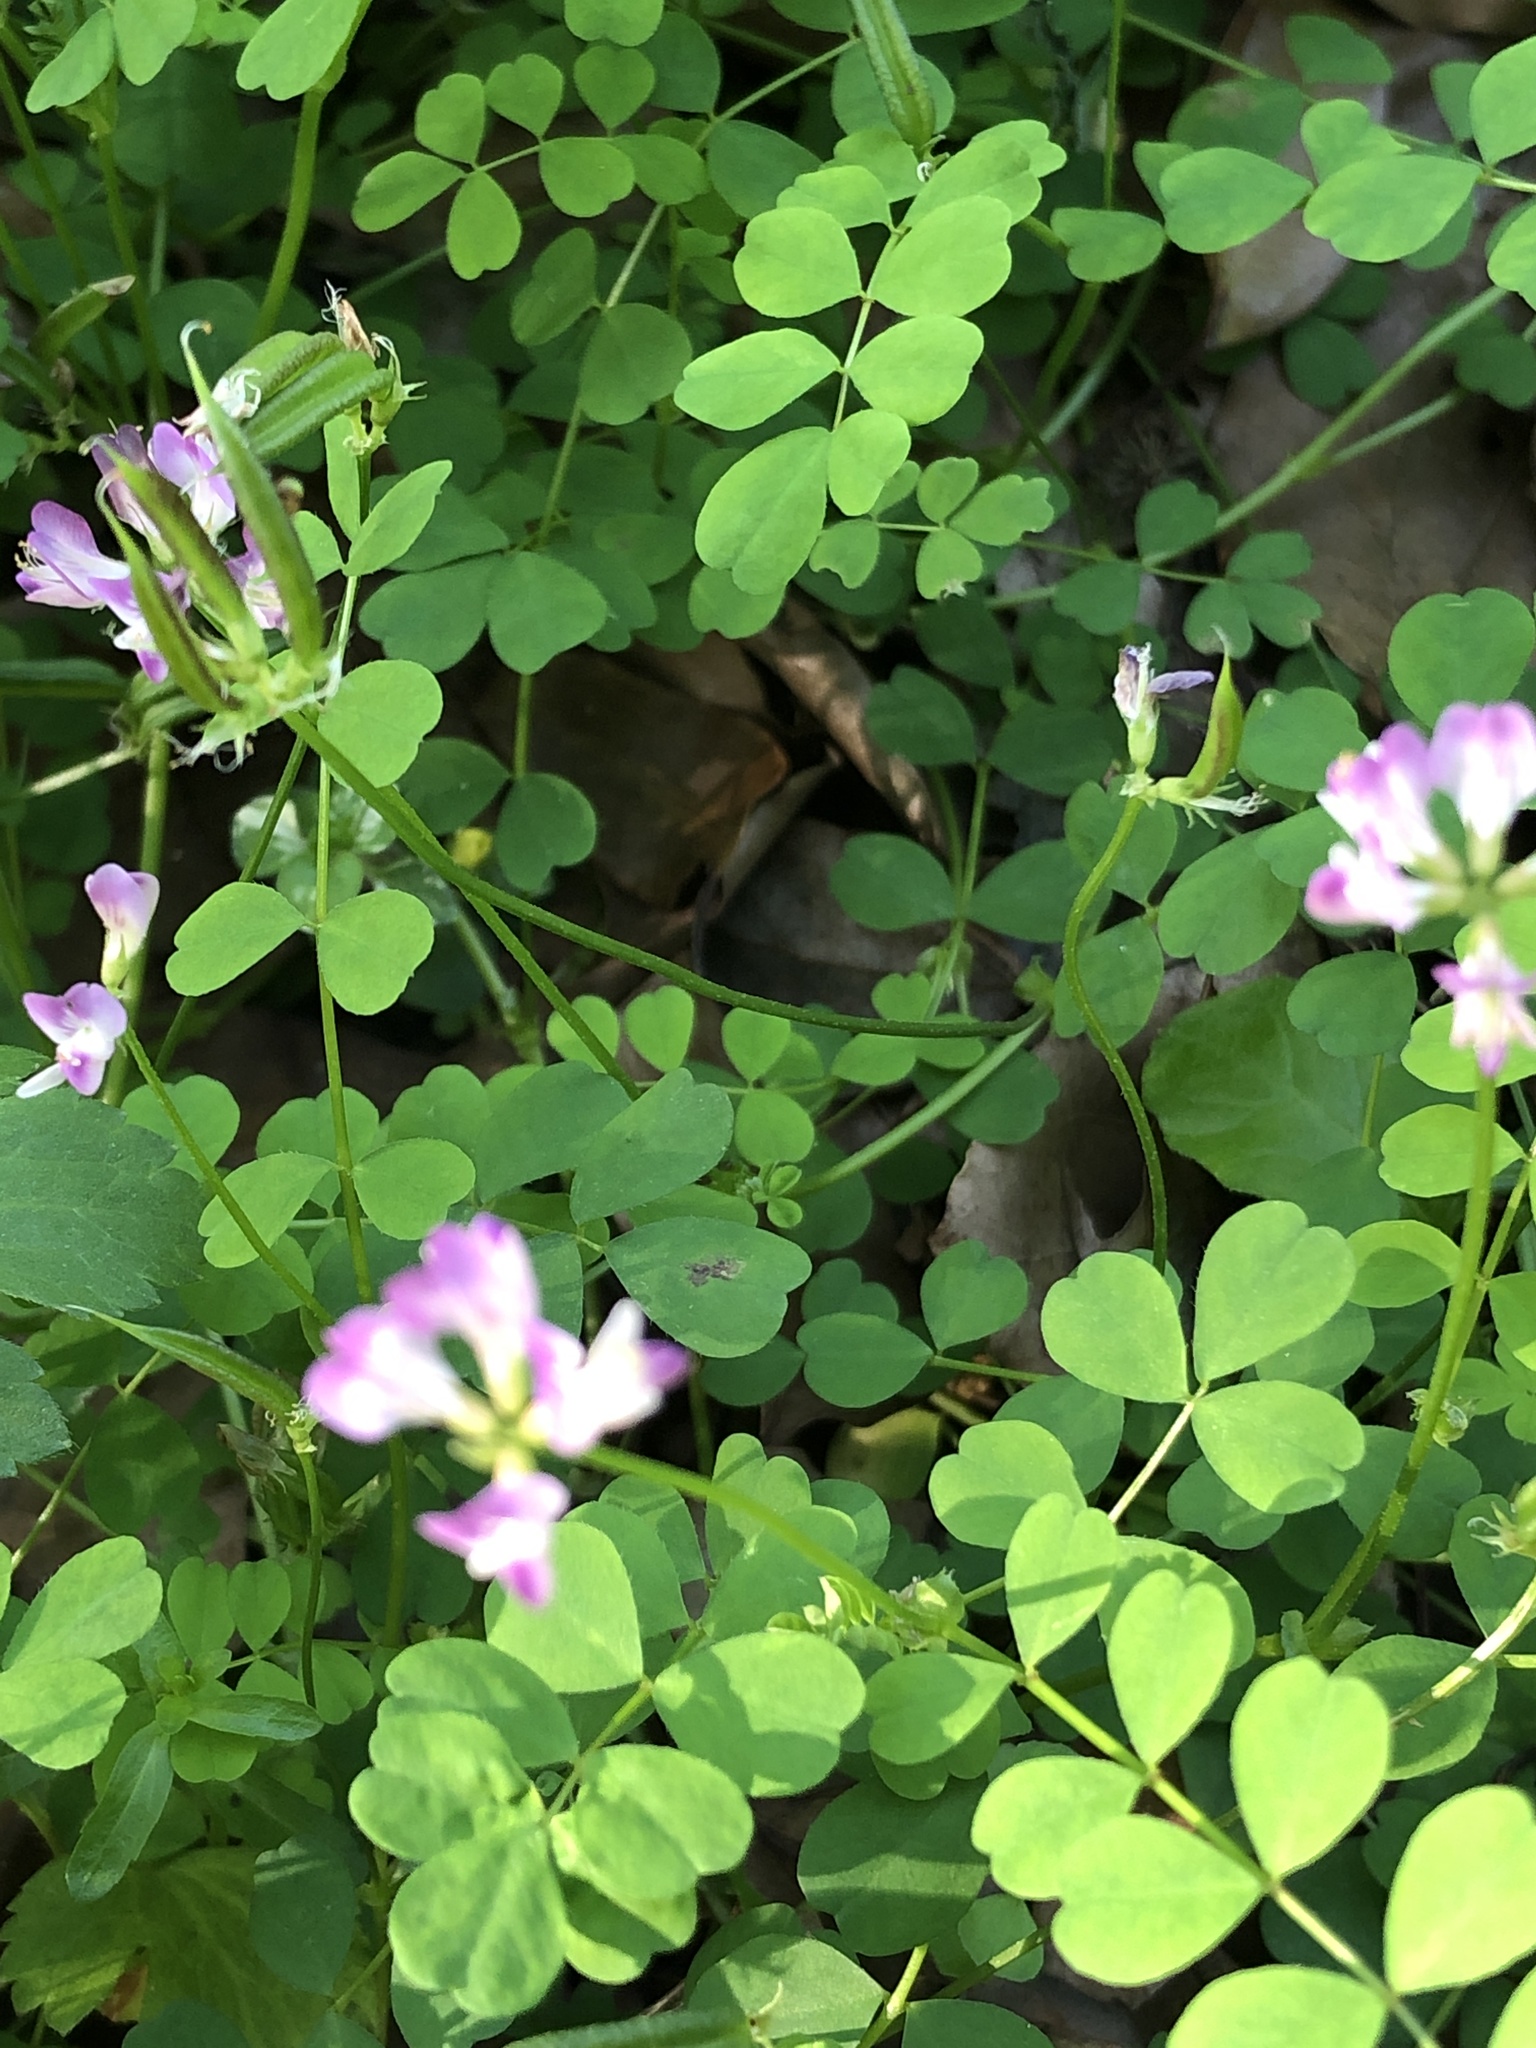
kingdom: Plantae
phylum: Tracheophyta
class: Magnoliopsida
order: Fabales
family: Fabaceae
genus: Astragalus
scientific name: Astragalus sinicus
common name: Chinese milk-vetch
